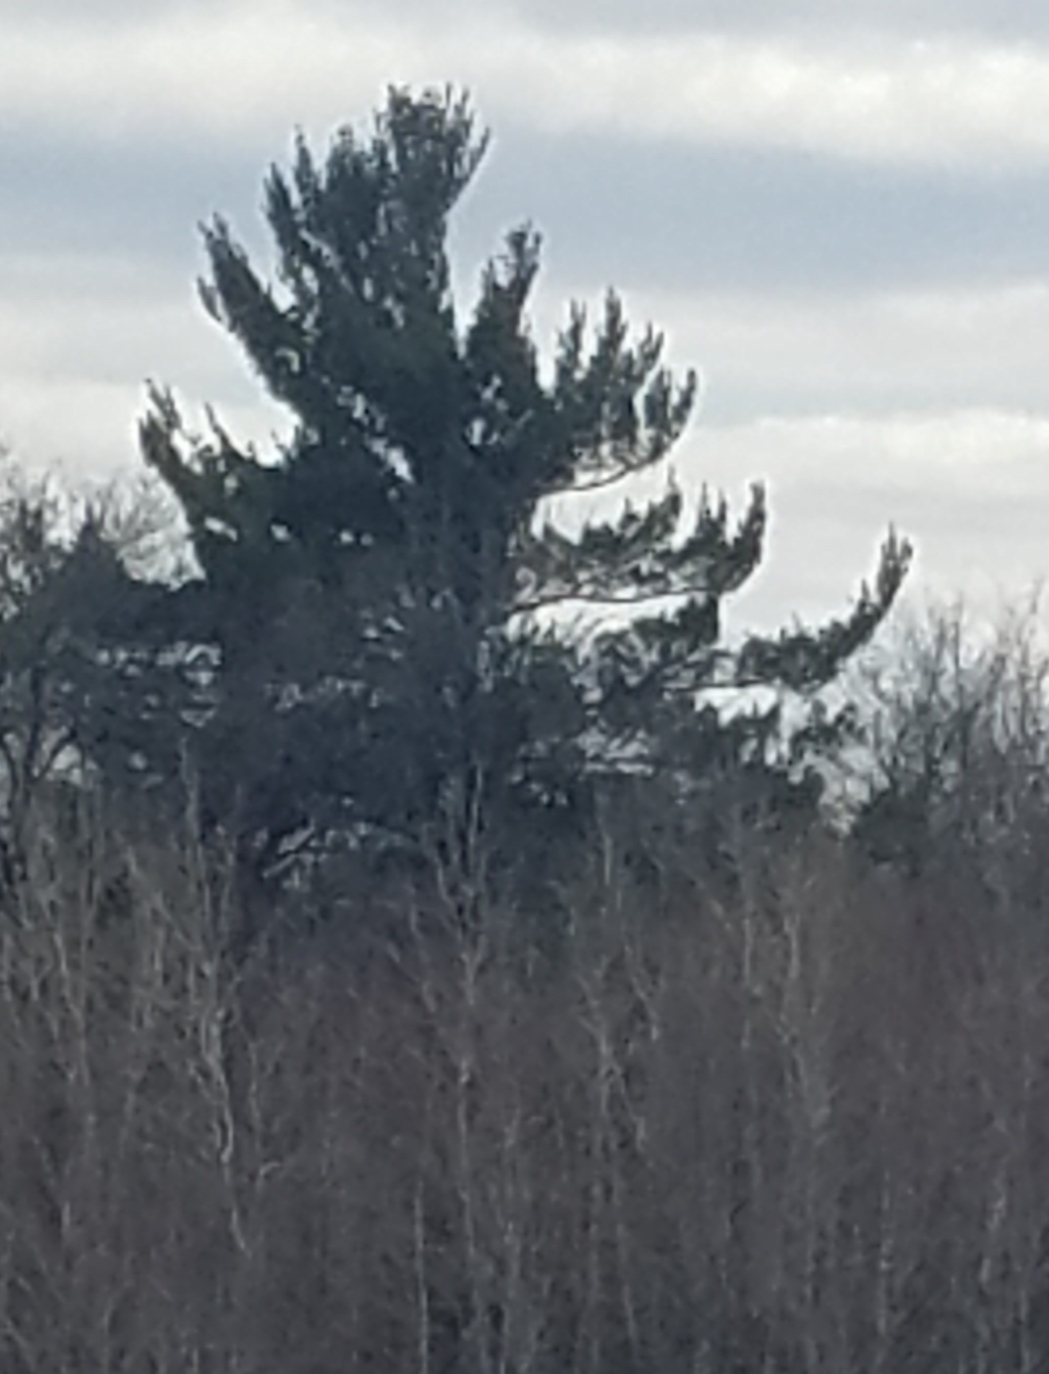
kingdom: Plantae
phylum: Tracheophyta
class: Pinopsida
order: Pinales
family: Pinaceae
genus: Pinus
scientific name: Pinus strobus
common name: Weymouth pine
